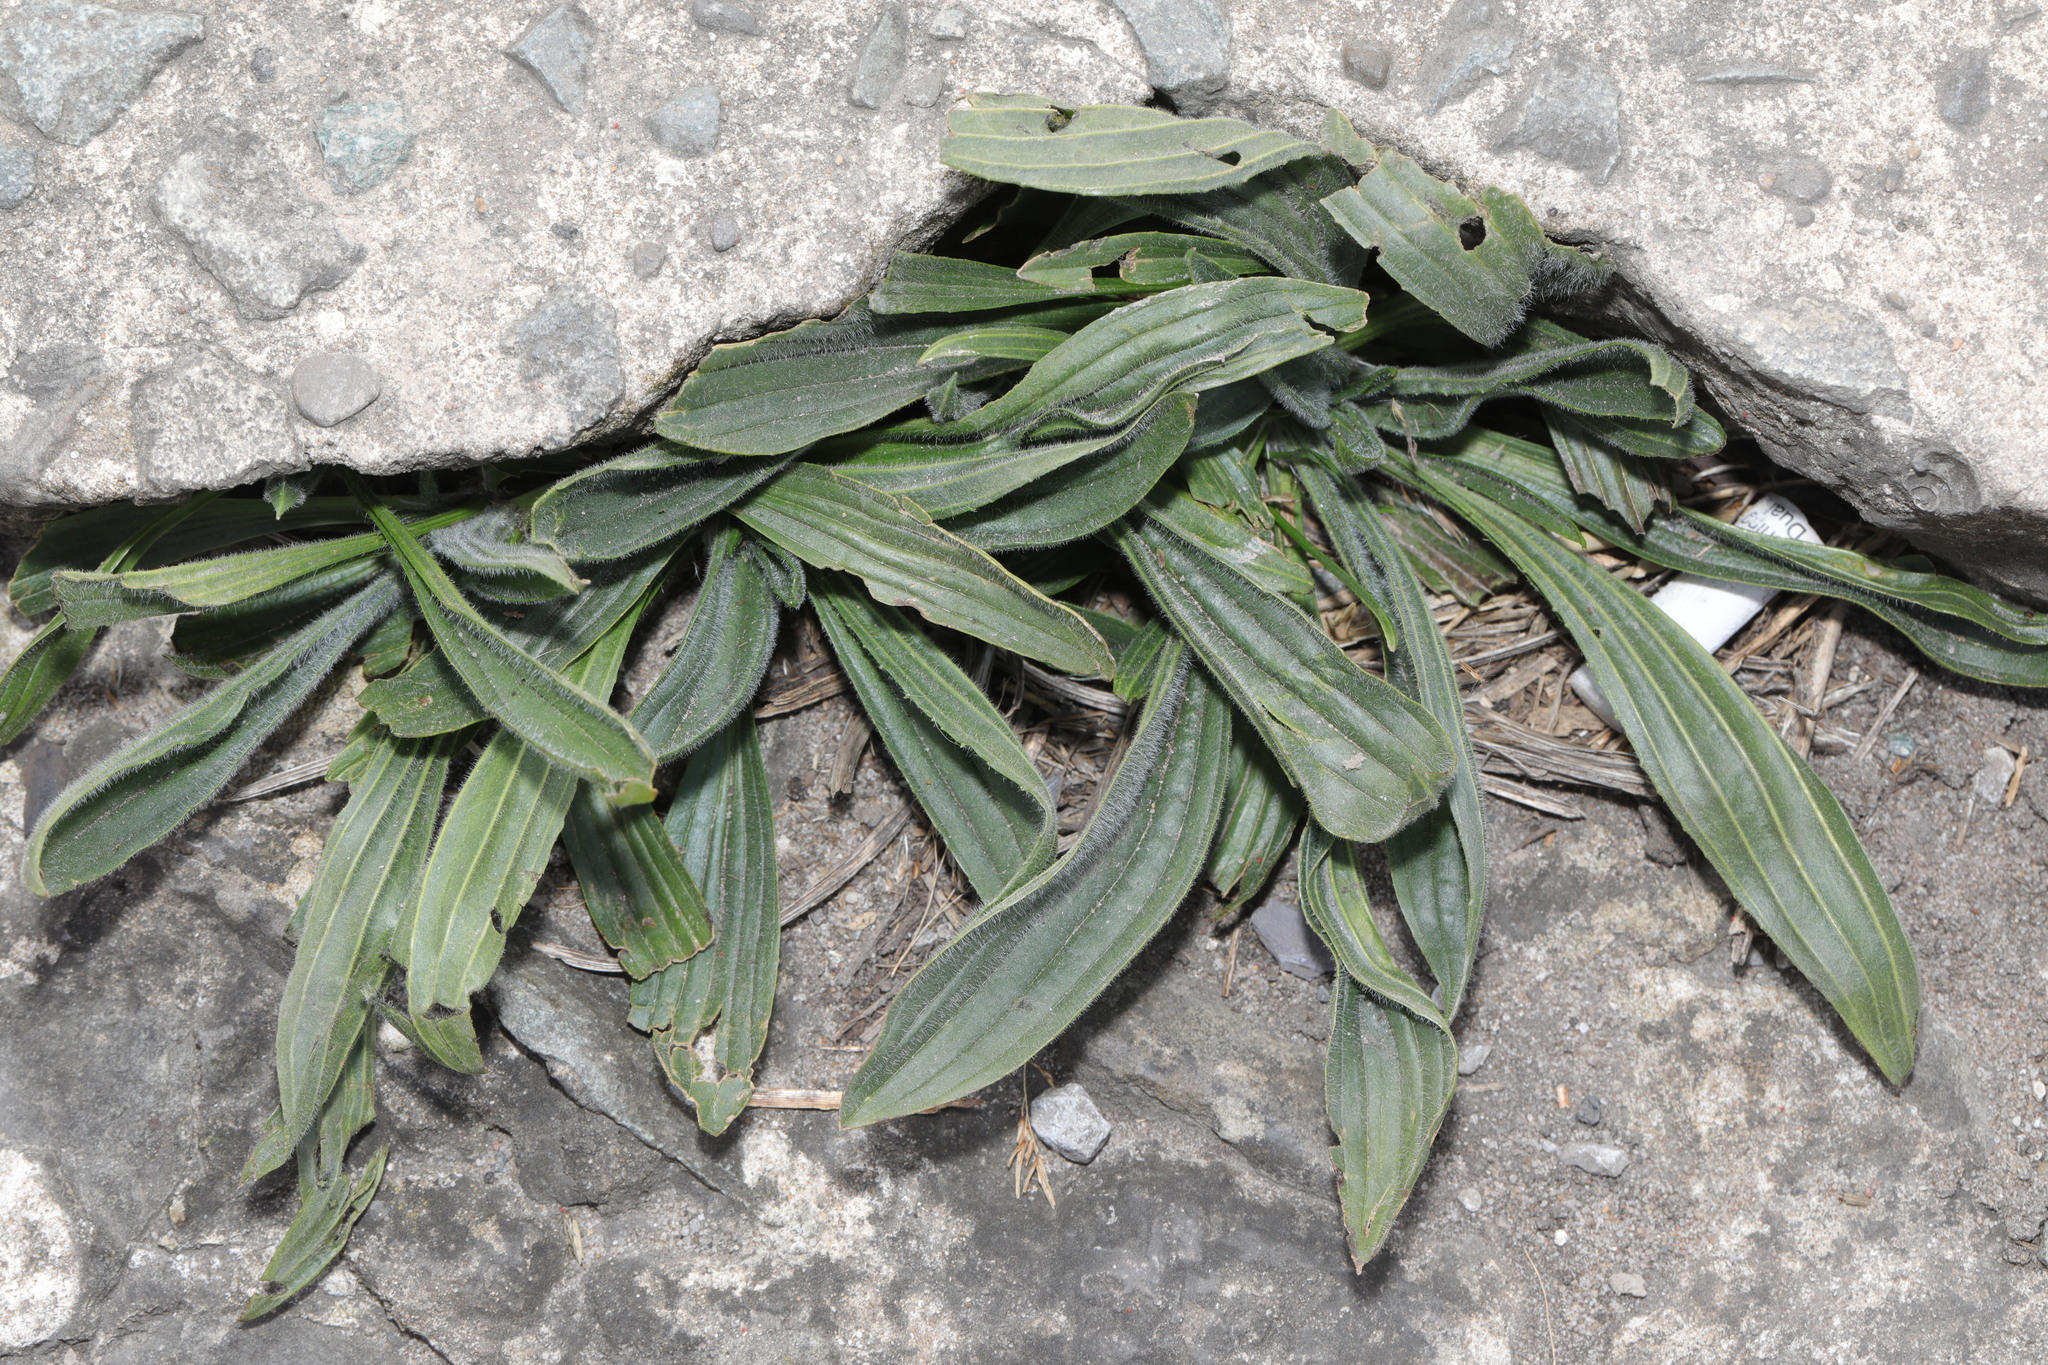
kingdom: Plantae
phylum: Tracheophyta
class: Magnoliopsida
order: Lamiales
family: Plantaginaceae
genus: Plantago
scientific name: Plantago lanceolata
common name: Ribwort plantain
